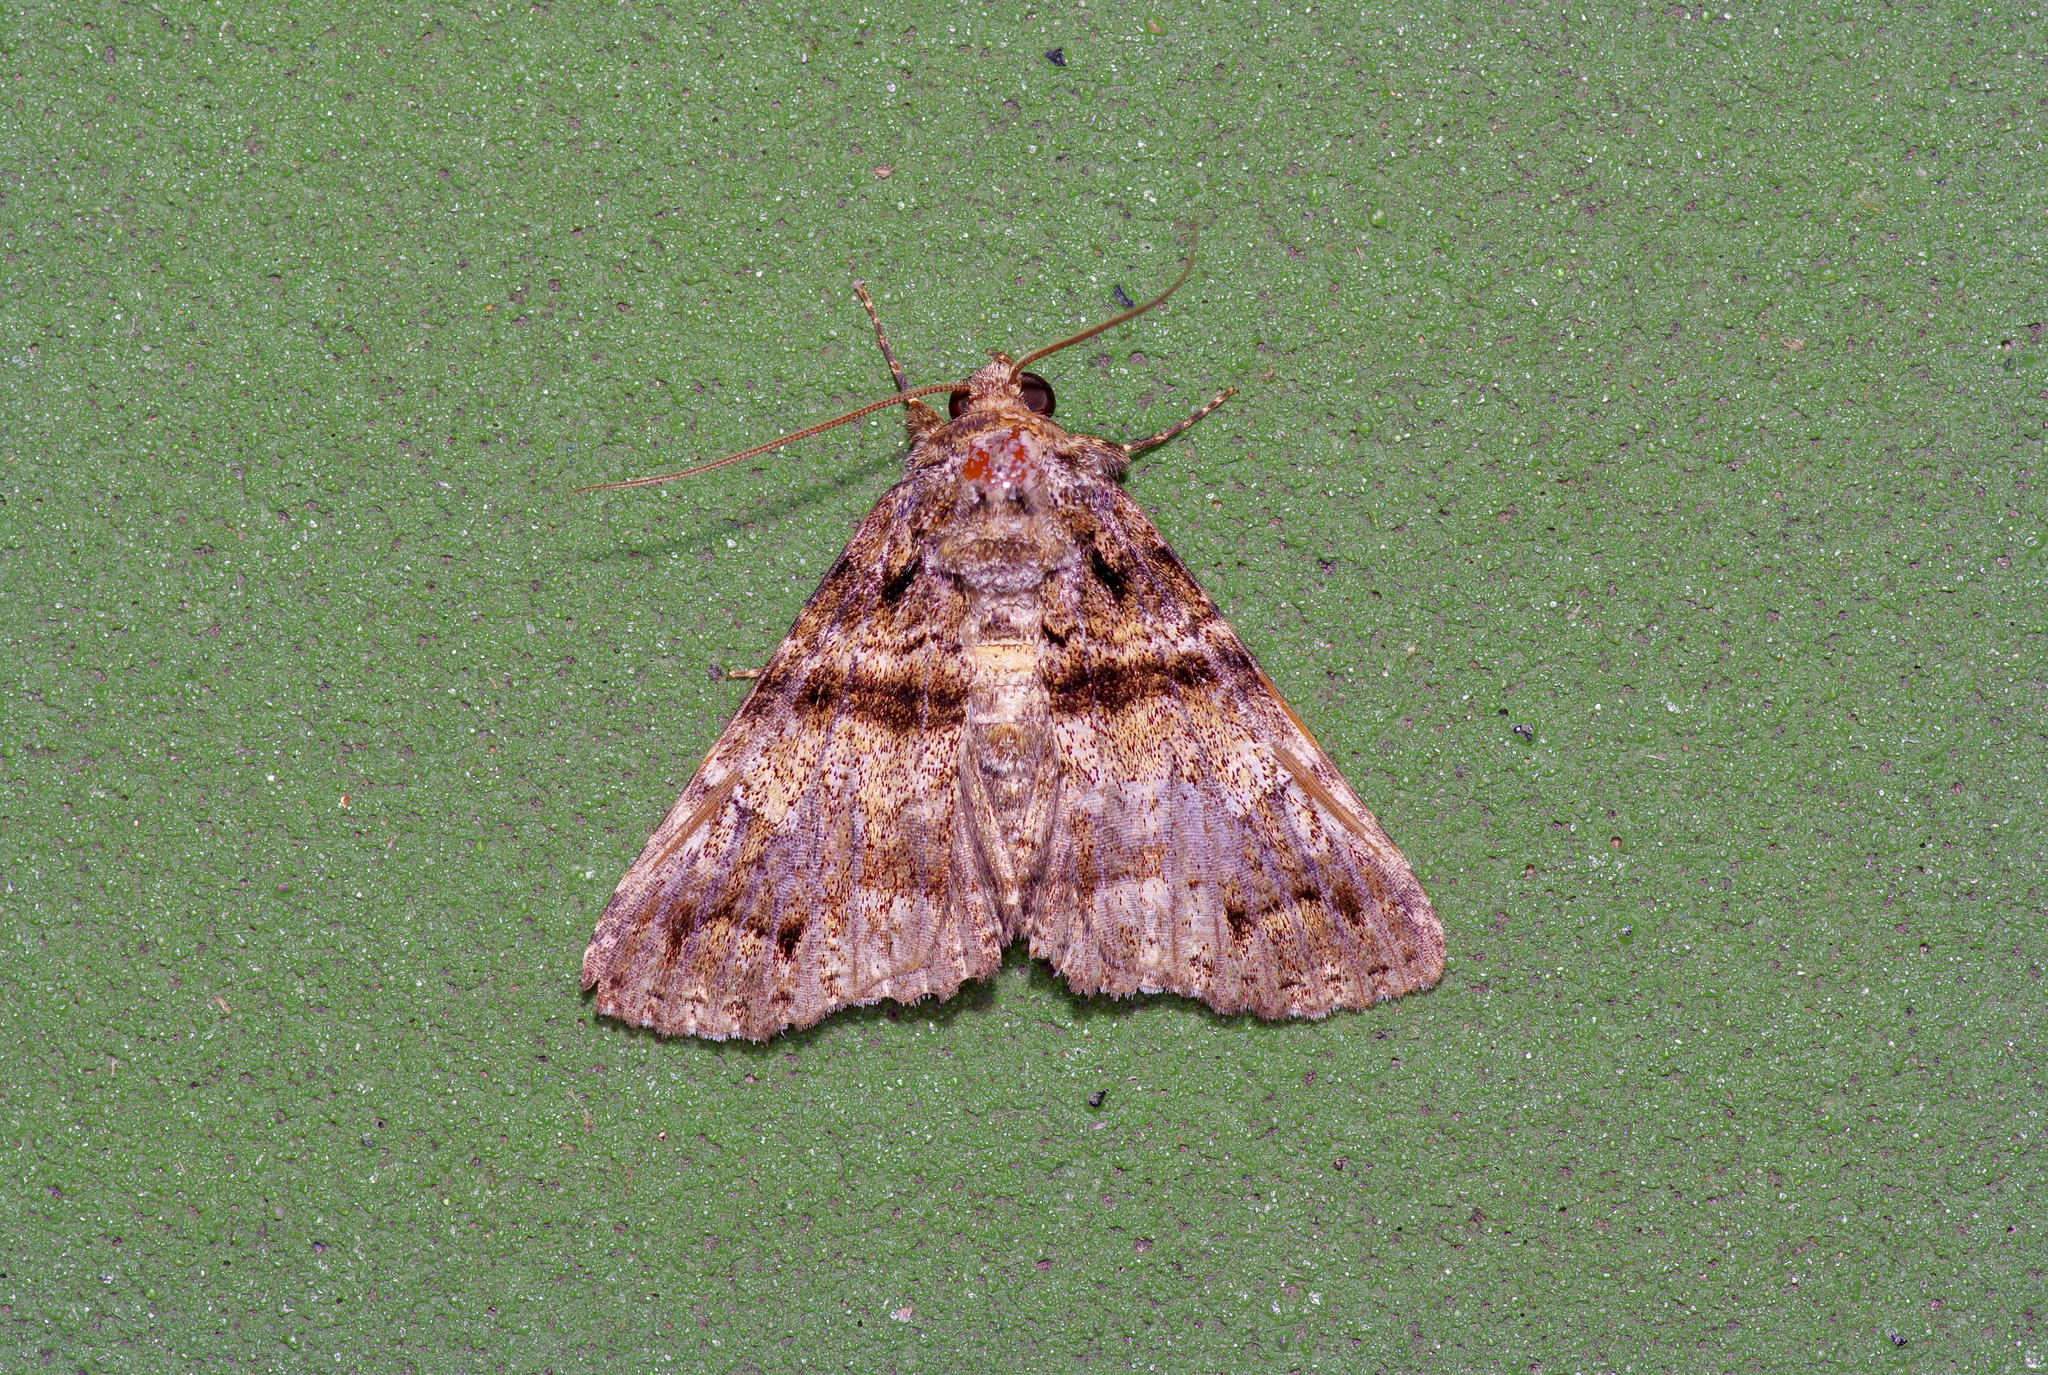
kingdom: Animalia
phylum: Arthropoda
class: Insecta
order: Lepidoptera
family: Erebidae
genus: Metria
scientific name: Metria amella
